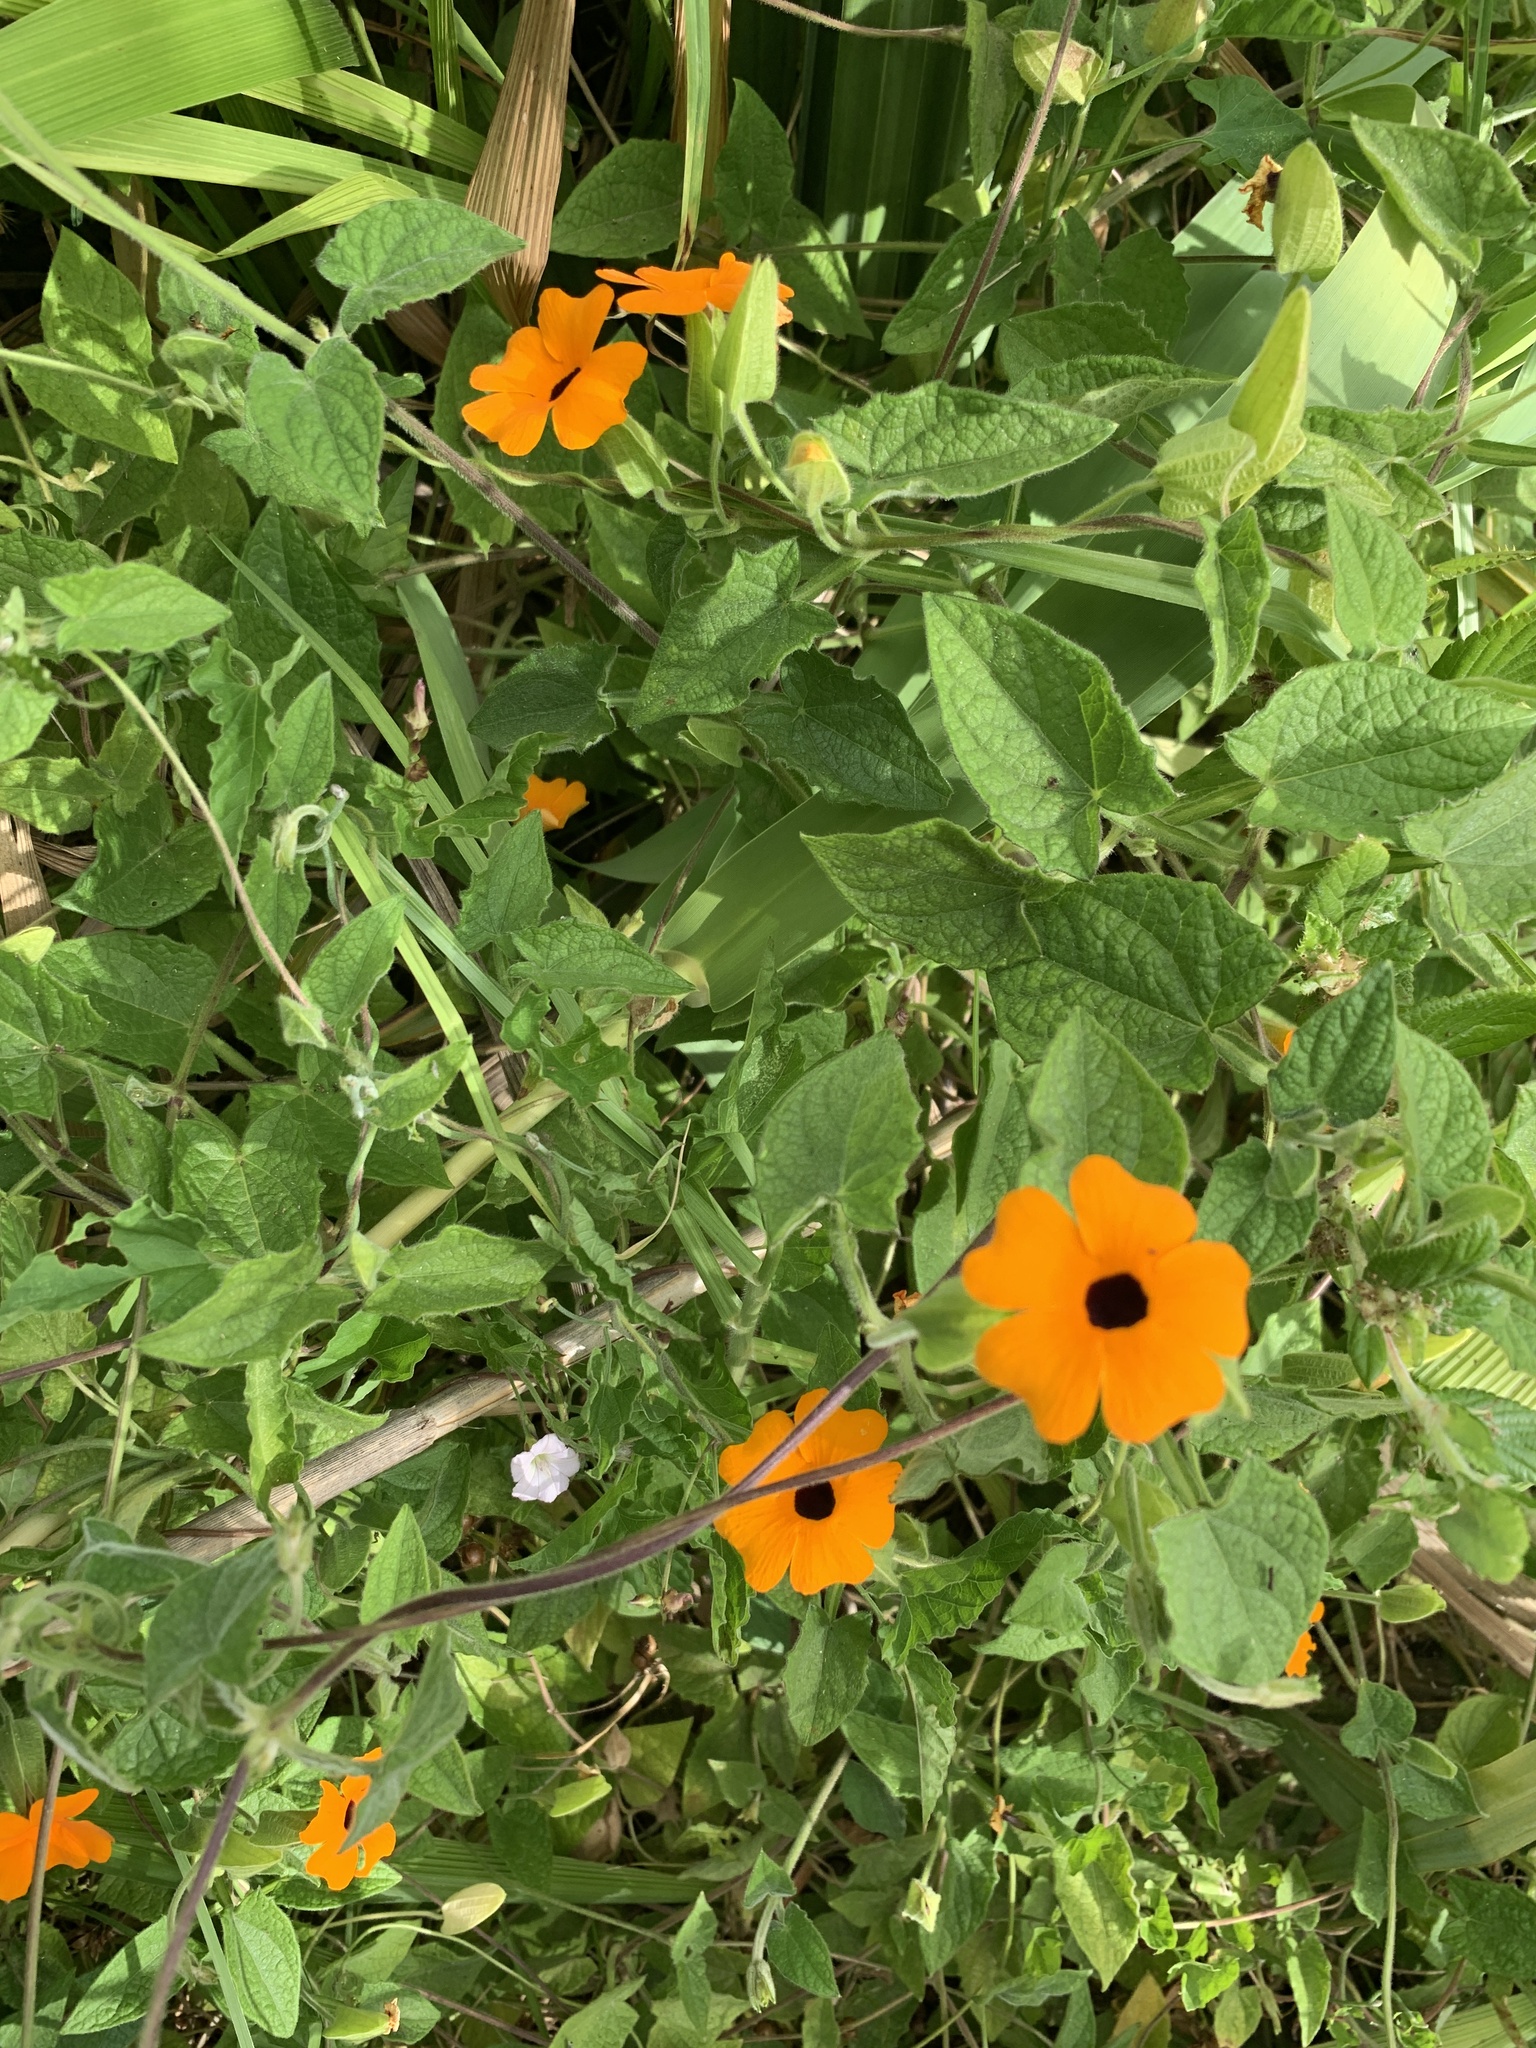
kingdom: Plantae
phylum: Tracheophyta
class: Magnoliopsida
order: Lamiales
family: Acanthaceae
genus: Thunbergia
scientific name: Thunbergia alata
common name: Blackeyed susan vine
